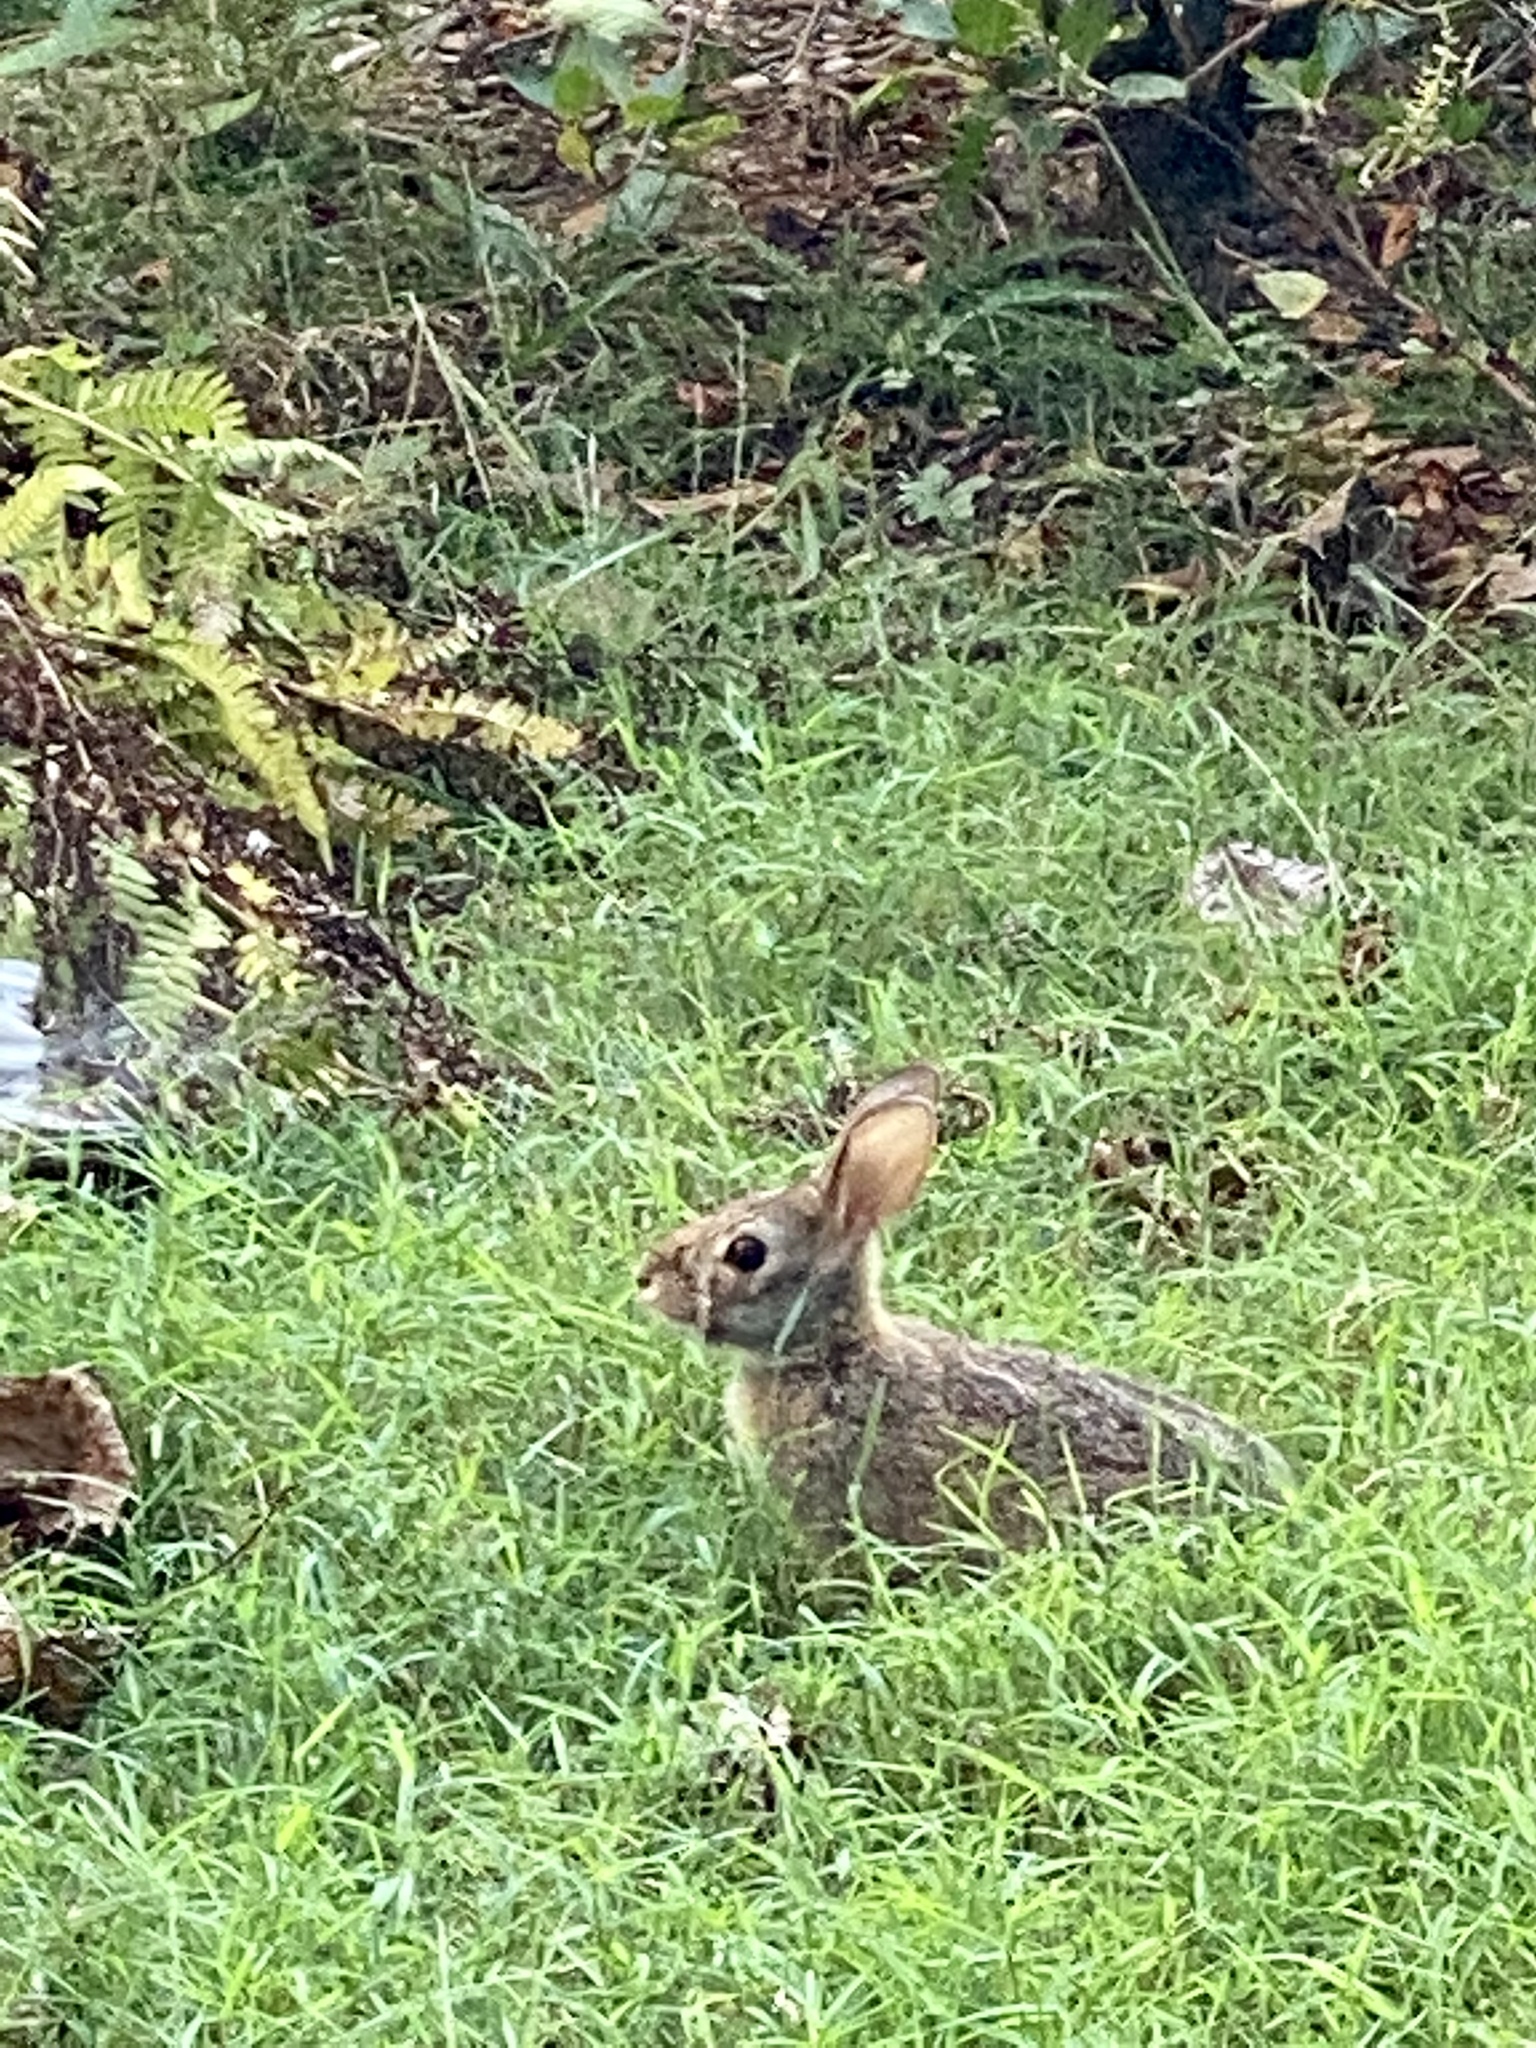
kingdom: Animalia
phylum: Chordata
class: Mammalia
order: Lagomorpha
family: Leporidae
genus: Sylvilagus
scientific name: Sylvilagus floridanus
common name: Eastern cottontail
